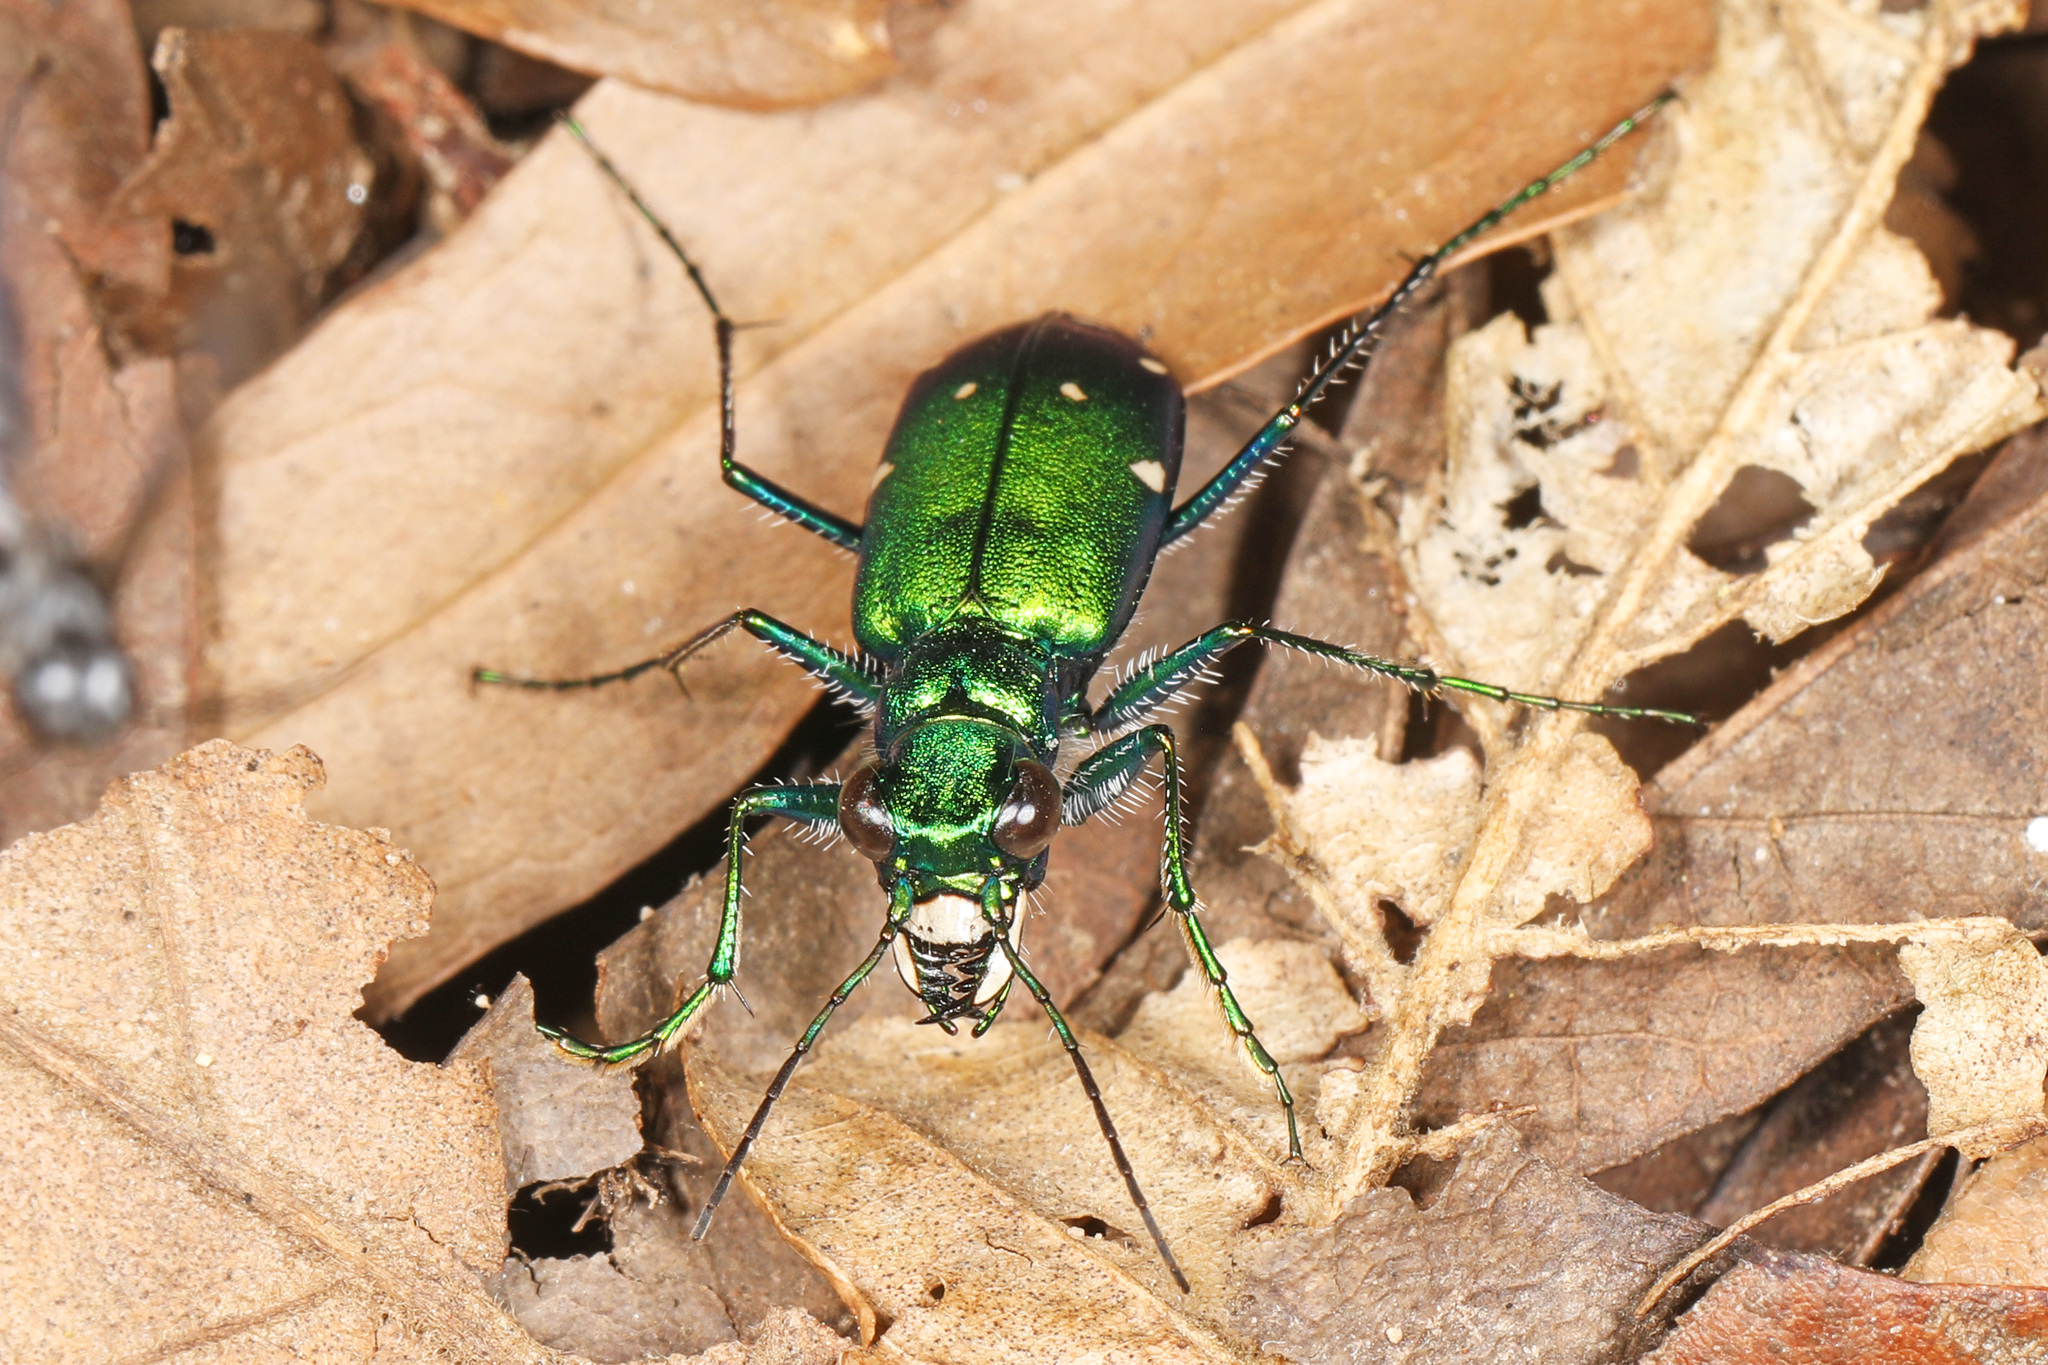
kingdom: Animalia
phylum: Arthropoda
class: Insecta
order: Coleoptera
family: Carabidae
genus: Cicindela
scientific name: Cicindela sexguttata
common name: Six-spotted tiger beetle
